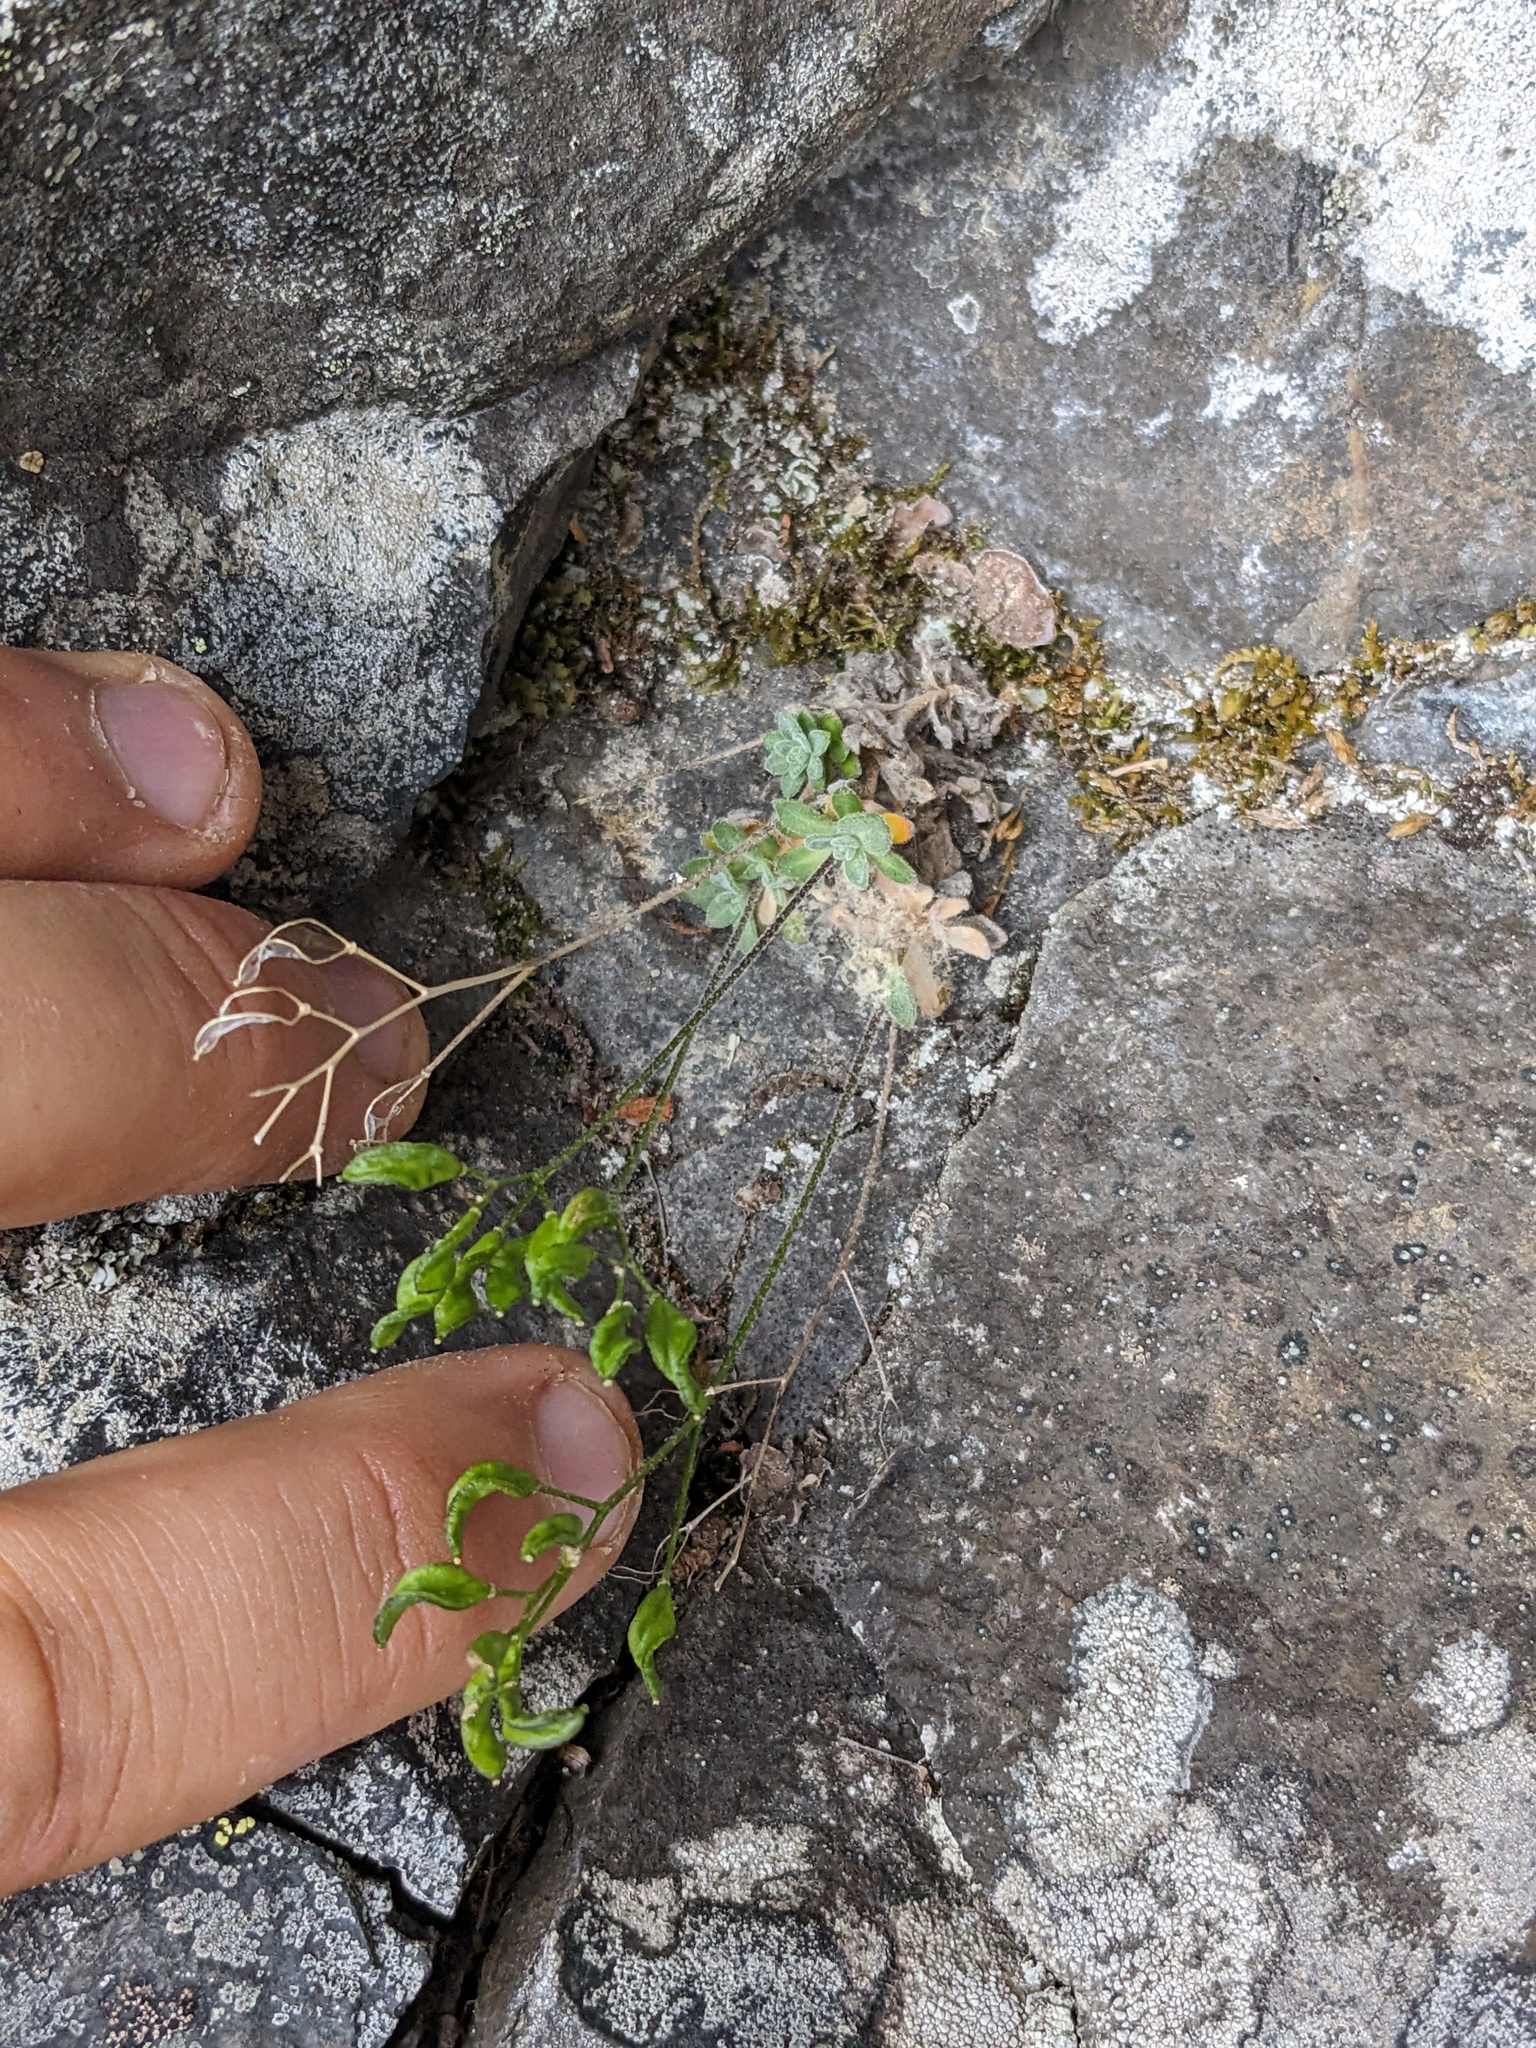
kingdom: Plantae
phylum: Tracheophyta
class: Magnoliopsida
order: Brassicales
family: Brassicaceae
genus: Draba
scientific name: Draba lonchocarpa
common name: Lance-fruit draba
